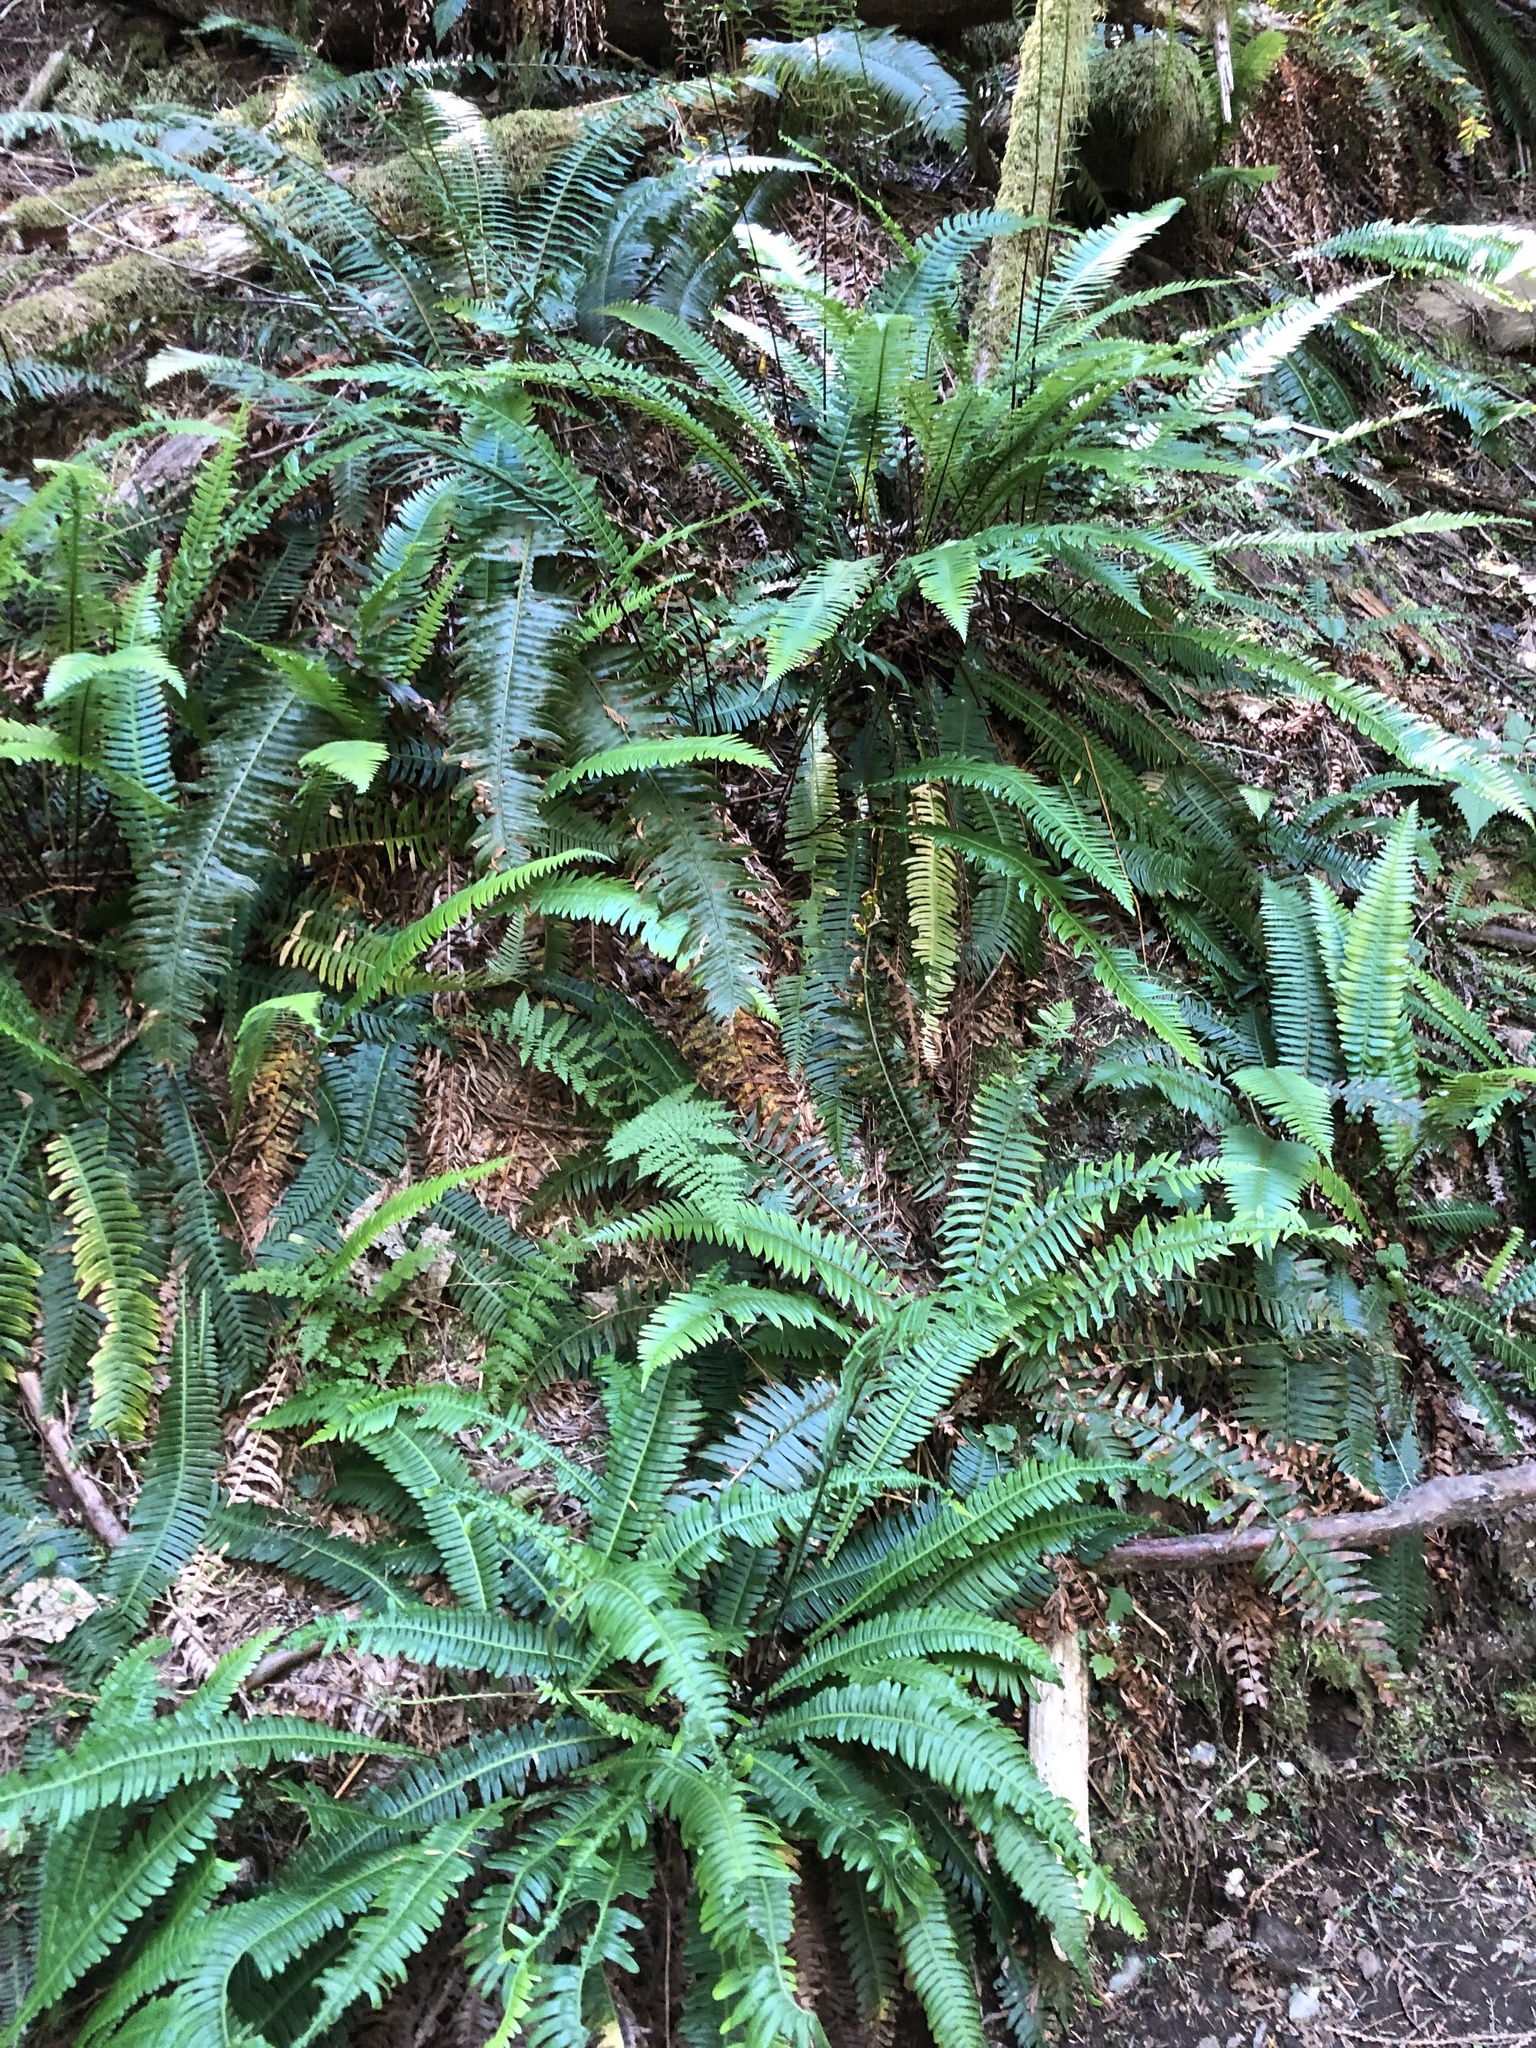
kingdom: Plantae
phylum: Tracheophyta
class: Polypodiopsida
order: Polypodiales
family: Blechnaceae
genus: Struthiopteris
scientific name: Struthiopteris spicant
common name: Deer fern
